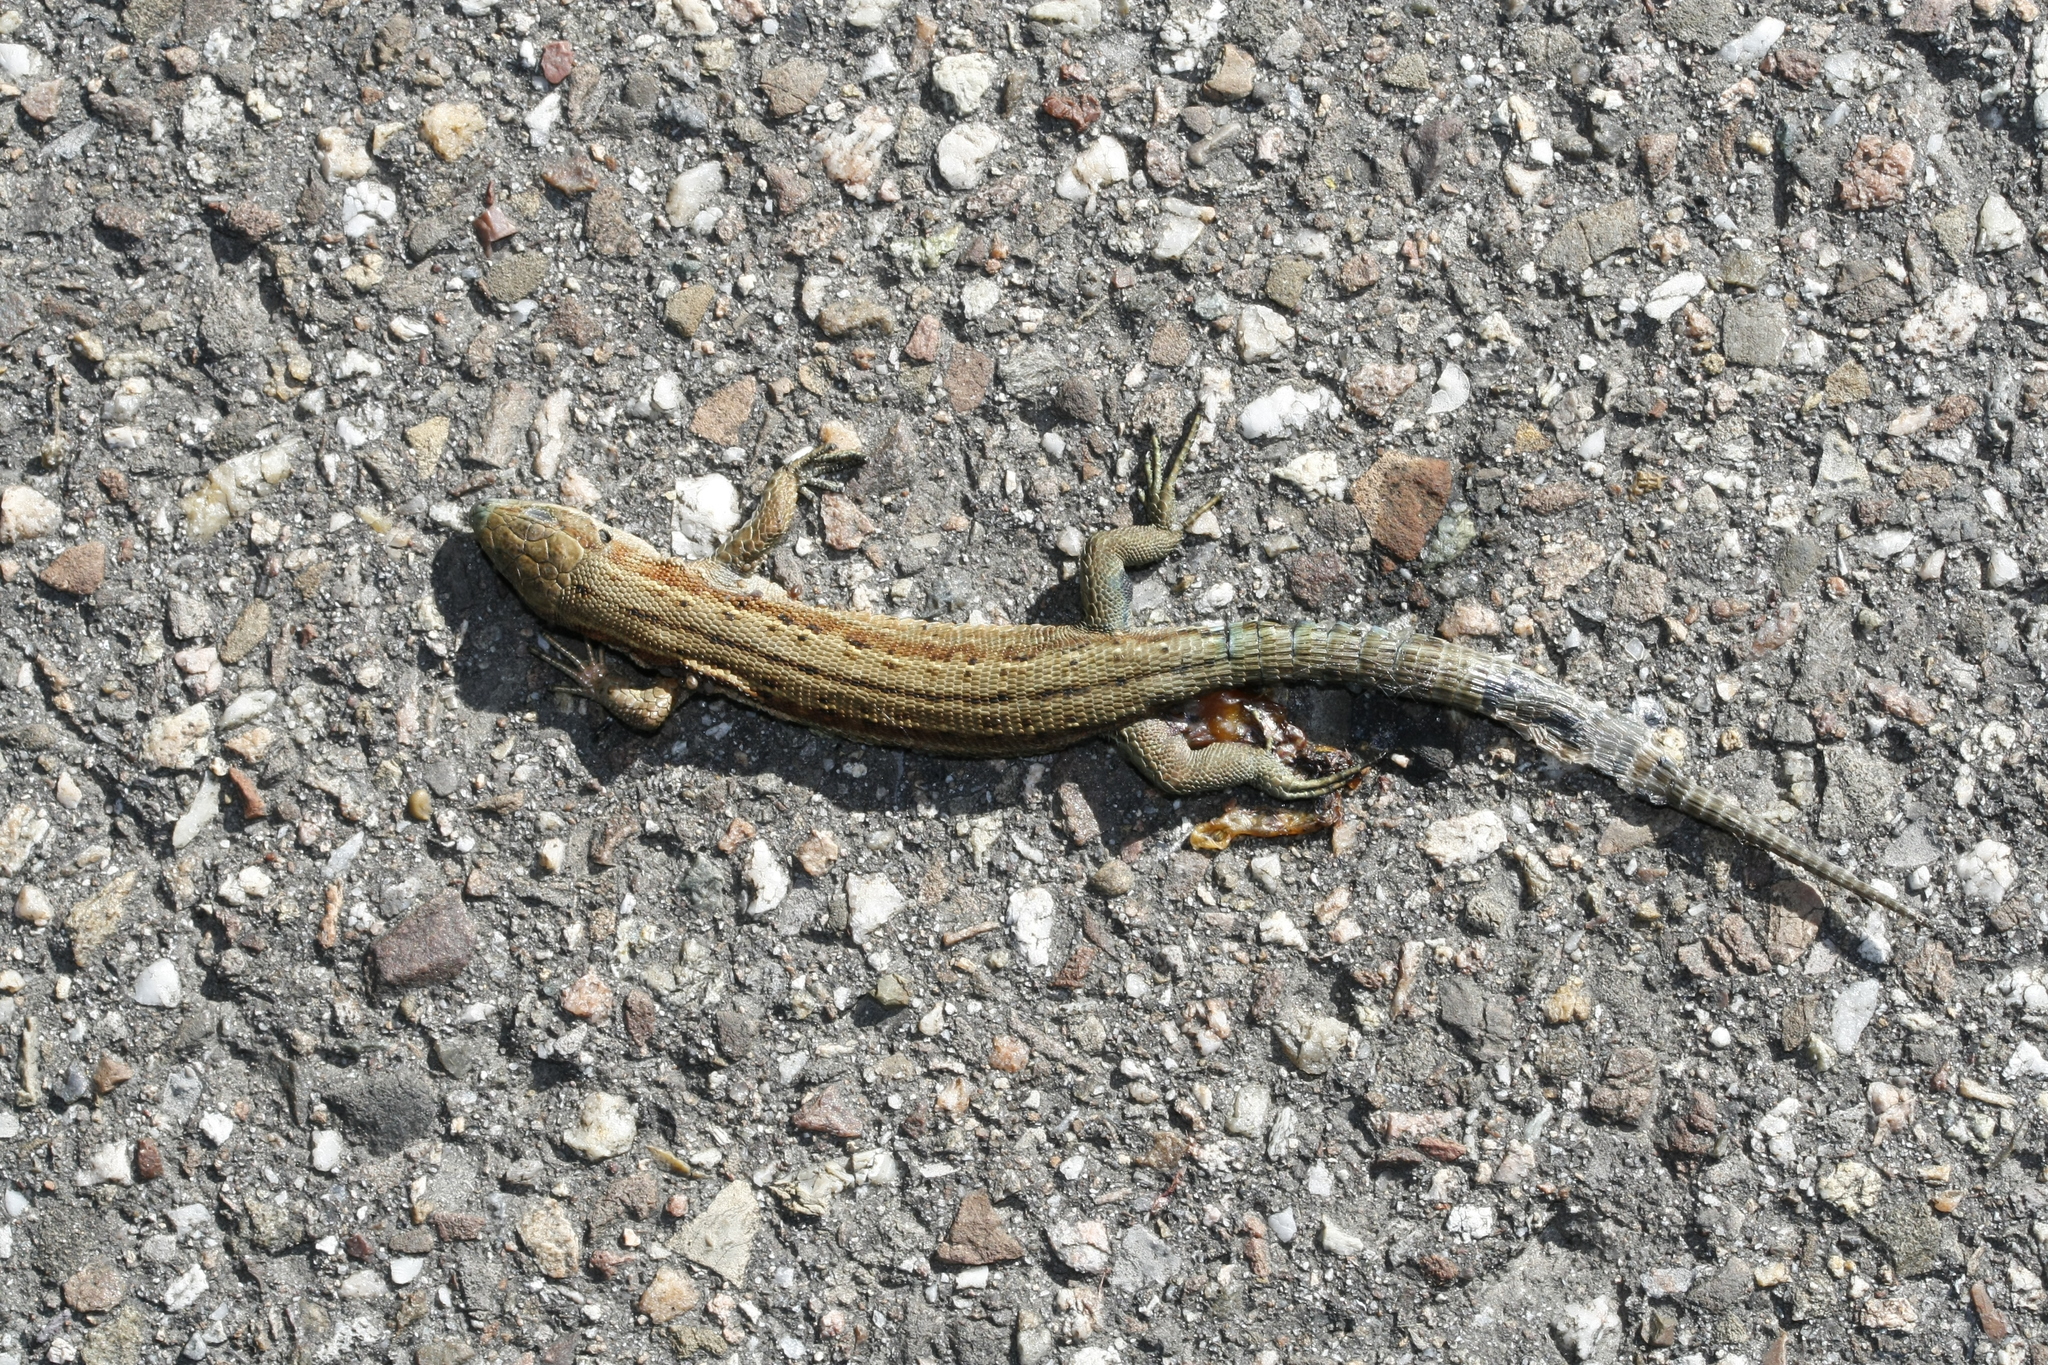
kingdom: Animalia
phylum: Chordata
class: Squamata
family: Lacertidae
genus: Zootoca
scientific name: Zootoca vivipara
